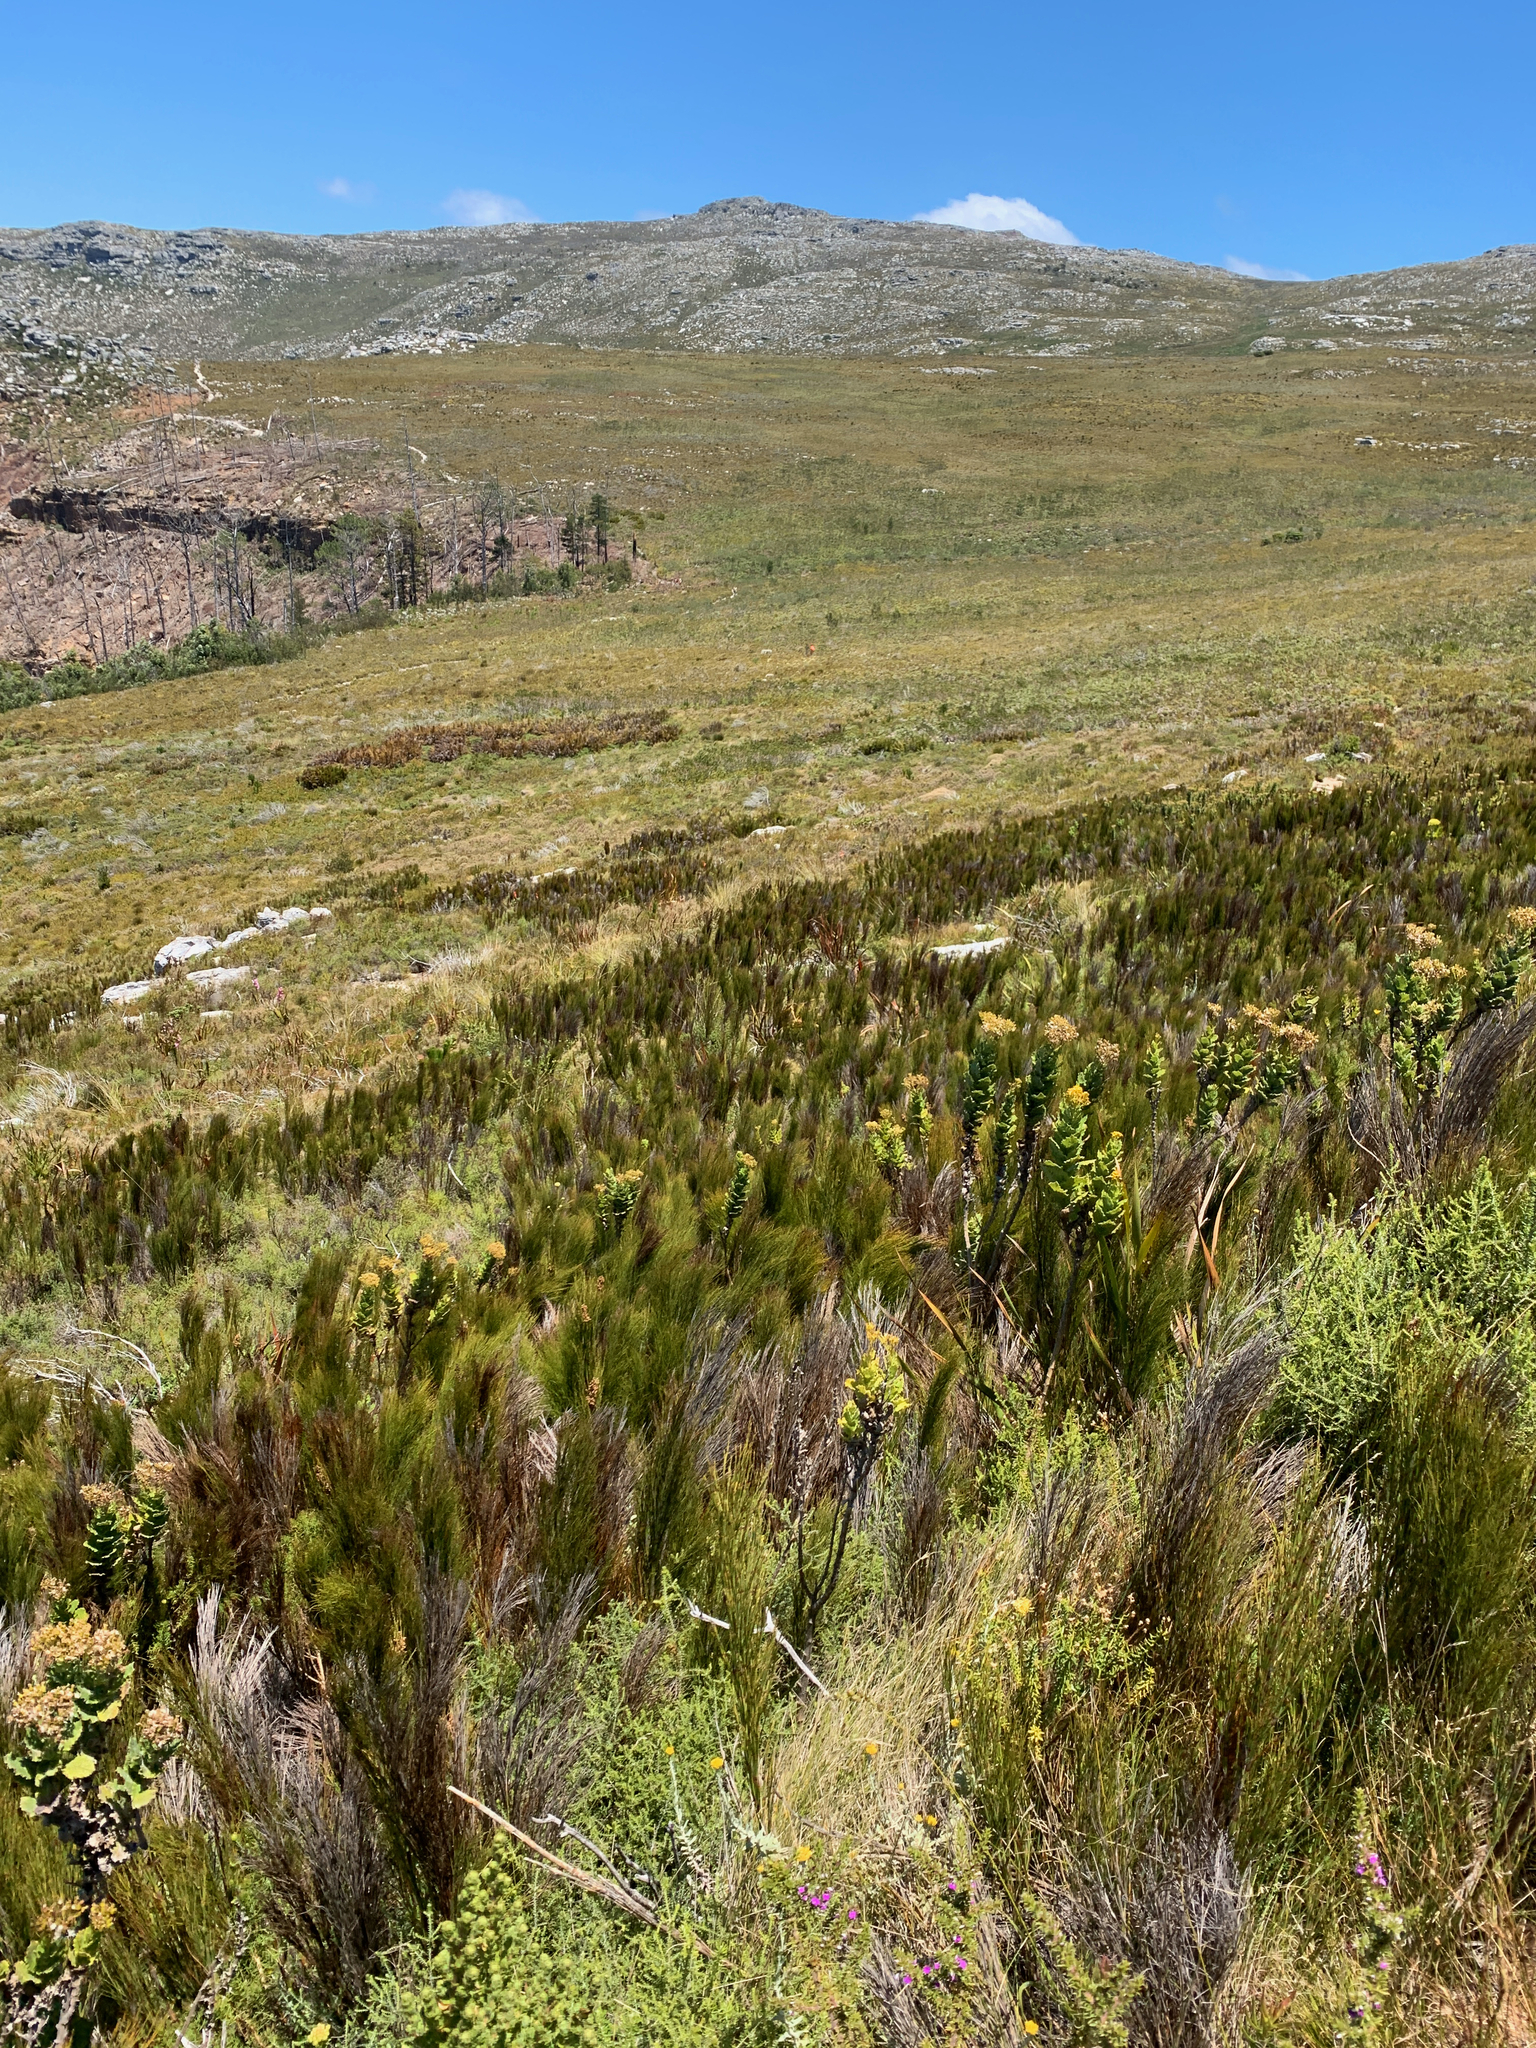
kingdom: Plantae
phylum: Tracheophyta
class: Liliopsida
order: Poales
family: Restionaceae
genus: Cannomois
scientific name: Cannomois virgata
